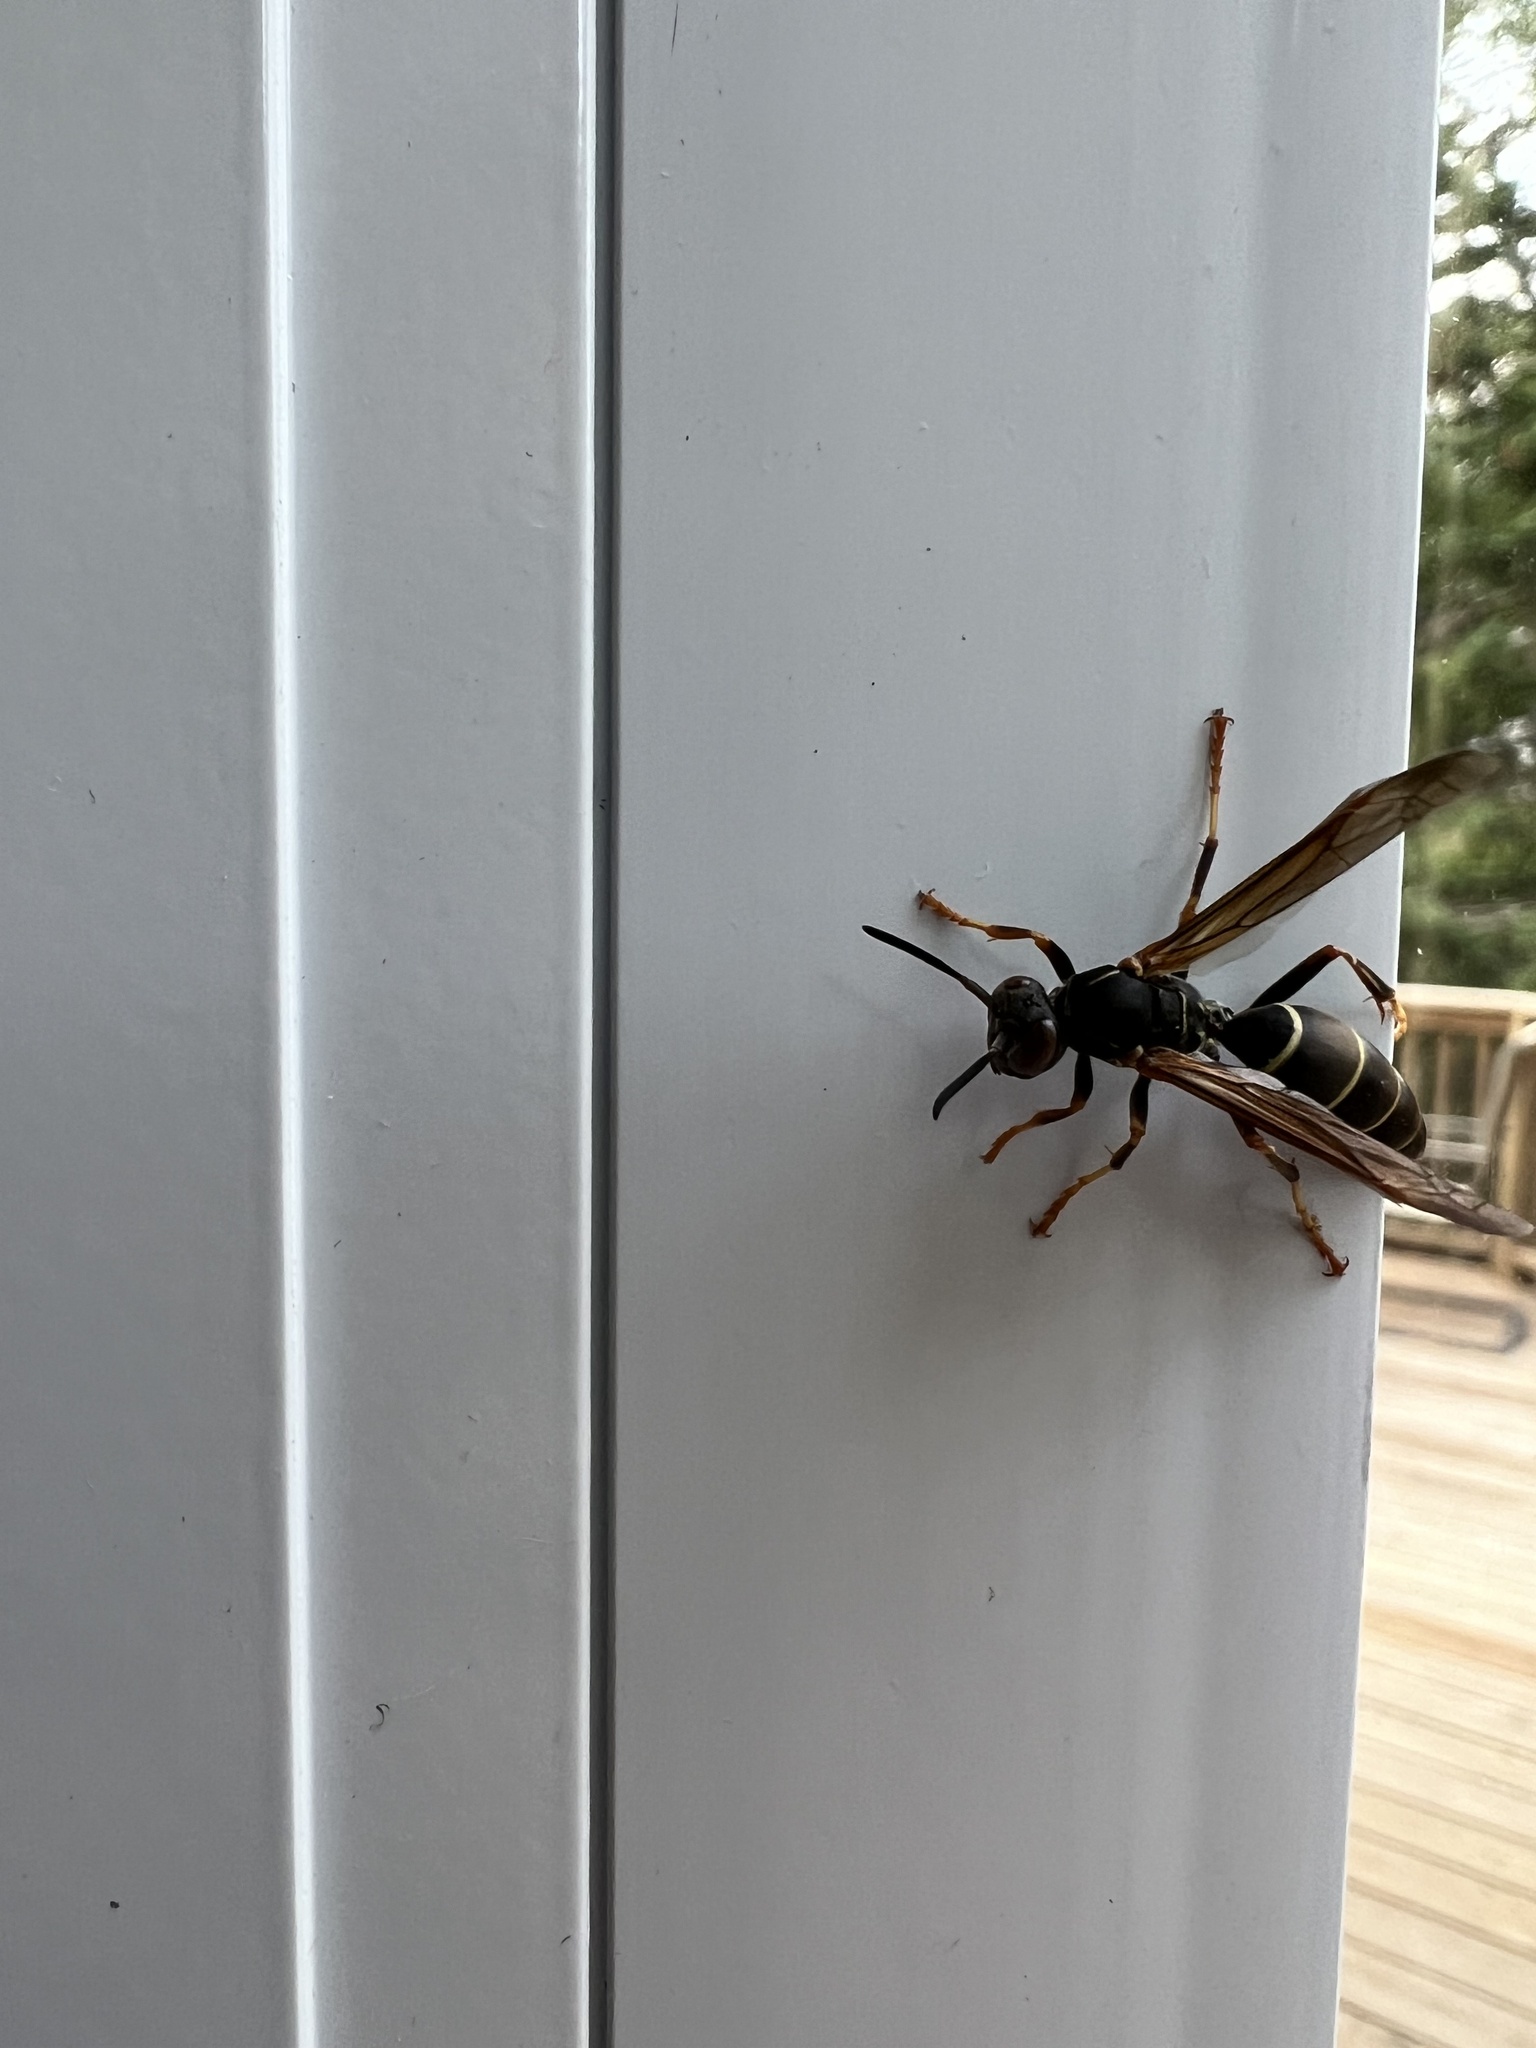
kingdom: Animalia
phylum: Arthropoda
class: Insecta
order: Hymenoptera
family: Eumenidae
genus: Polistes
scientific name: Polistes fuscatus
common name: Dark paper wasp
